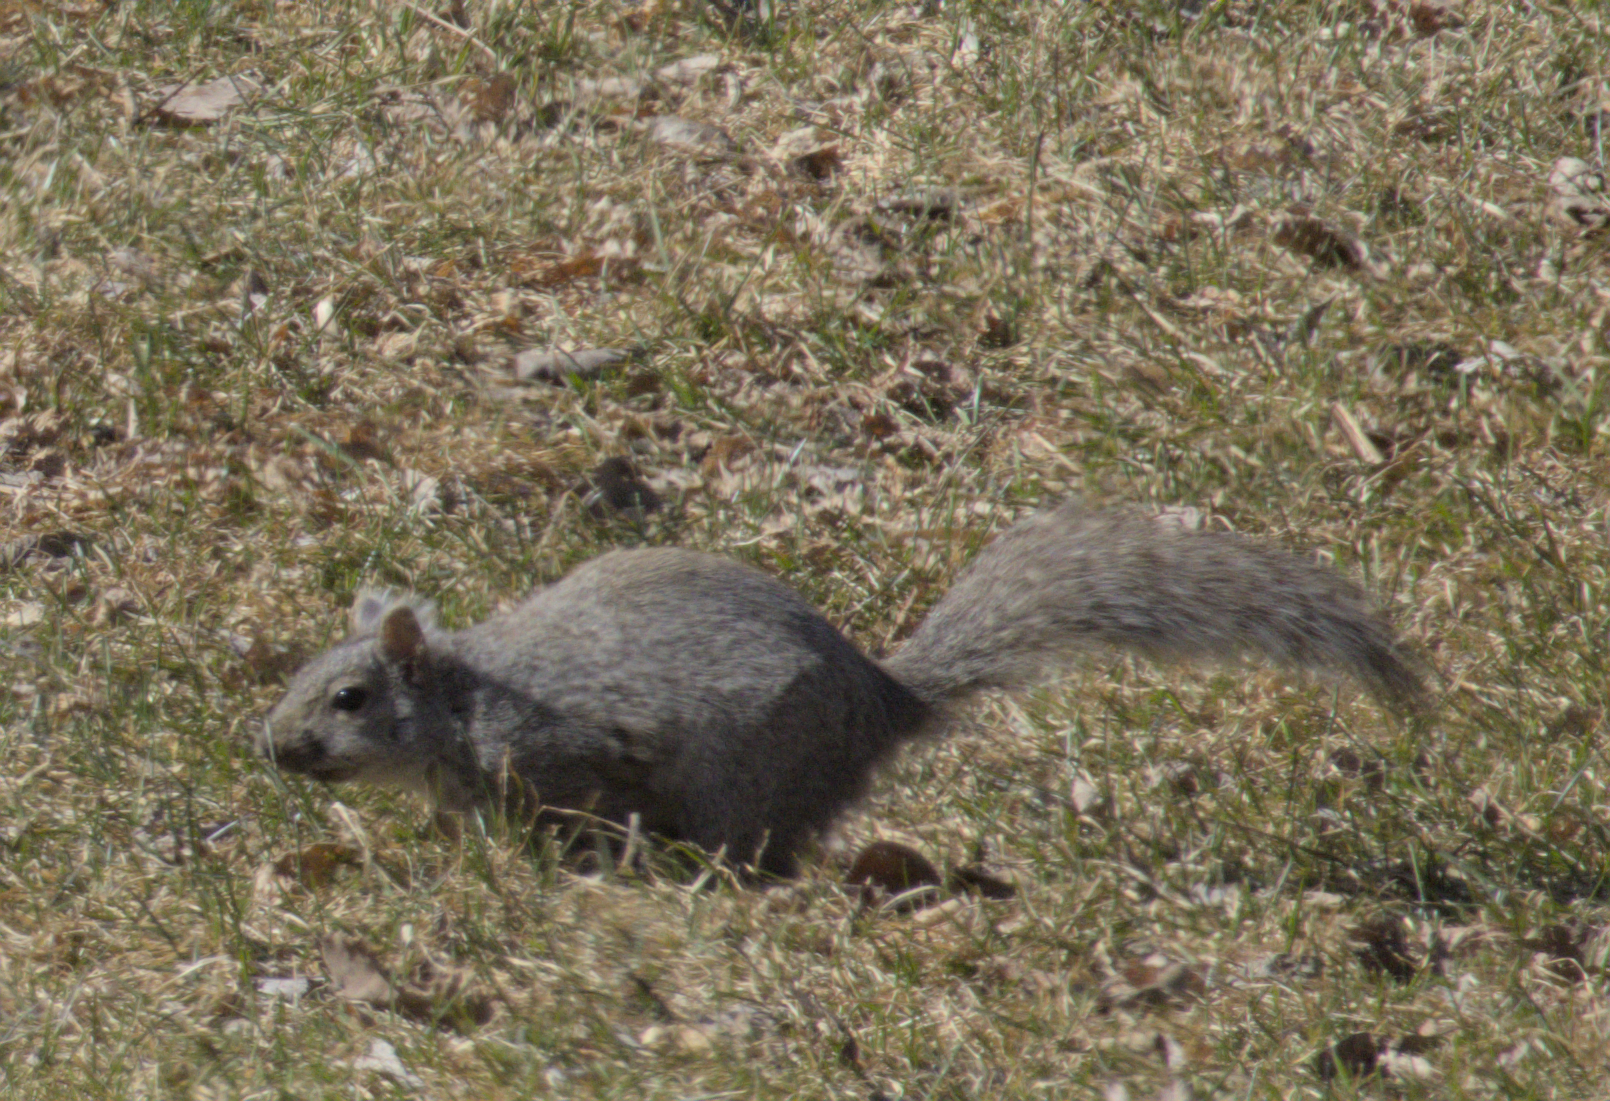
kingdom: Animalia
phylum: Chordata
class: Mammalia
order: Rodentia
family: Sciuridae
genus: Sciurus
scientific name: Sciurus carolinensis
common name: Eastern gray squirrel
